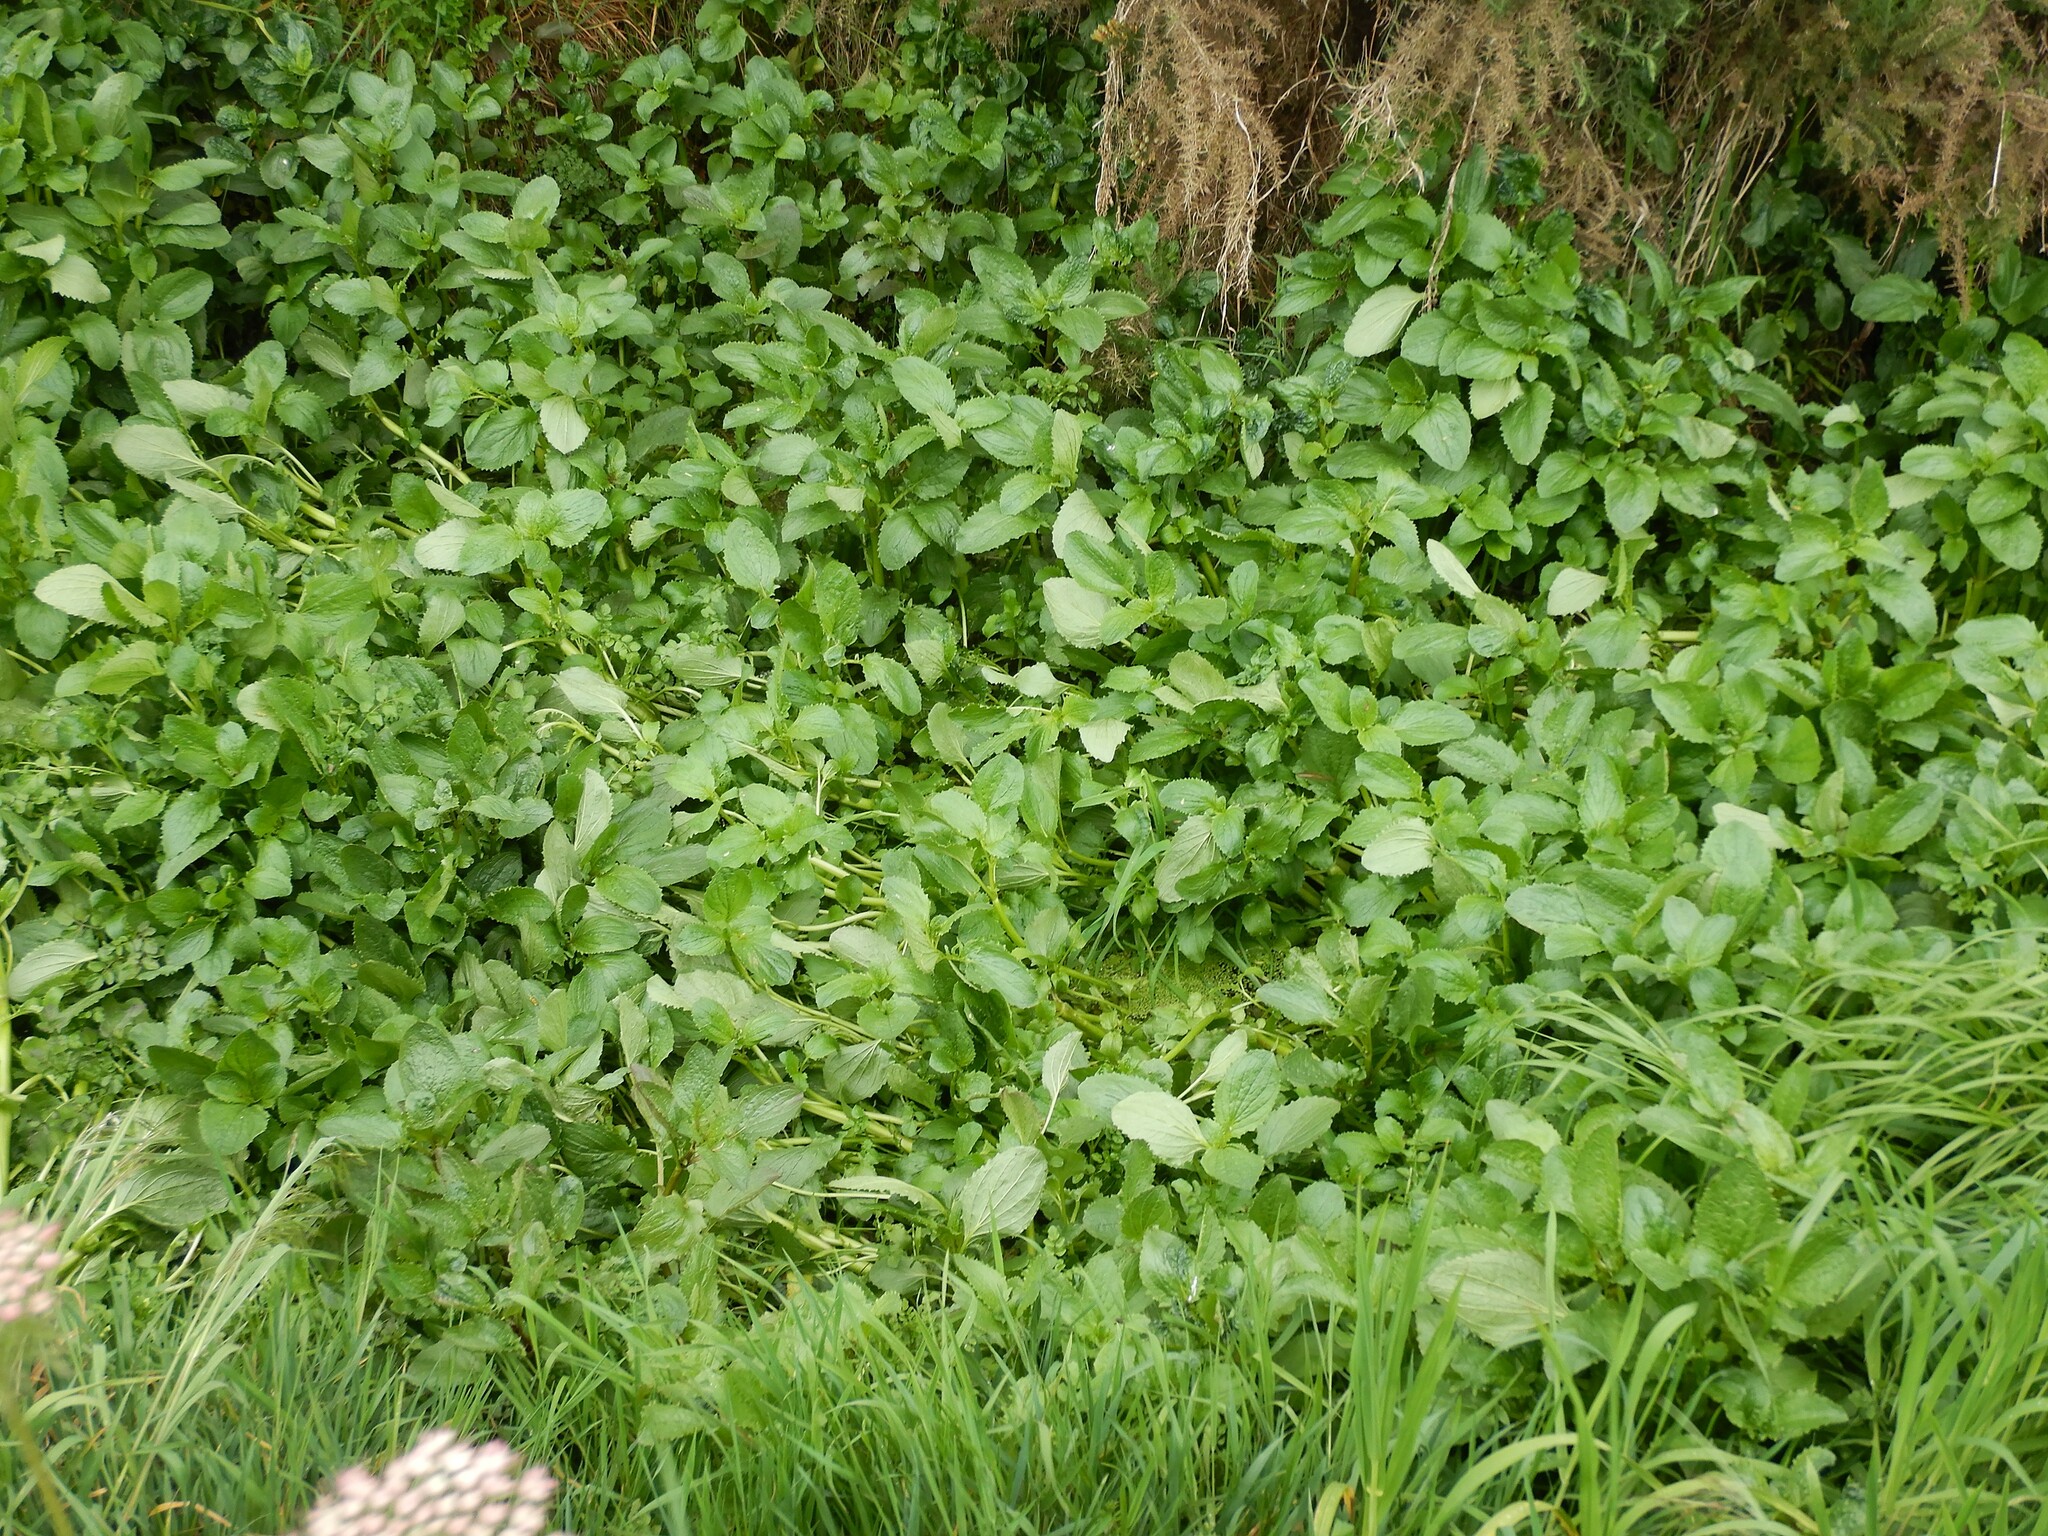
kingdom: Plantae
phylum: Tracheophyta
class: Magnoliopsida
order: Lamiales
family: Phrymaceae
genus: Erythranthe
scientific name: Erythranthe guttata
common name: Monkeyflower
